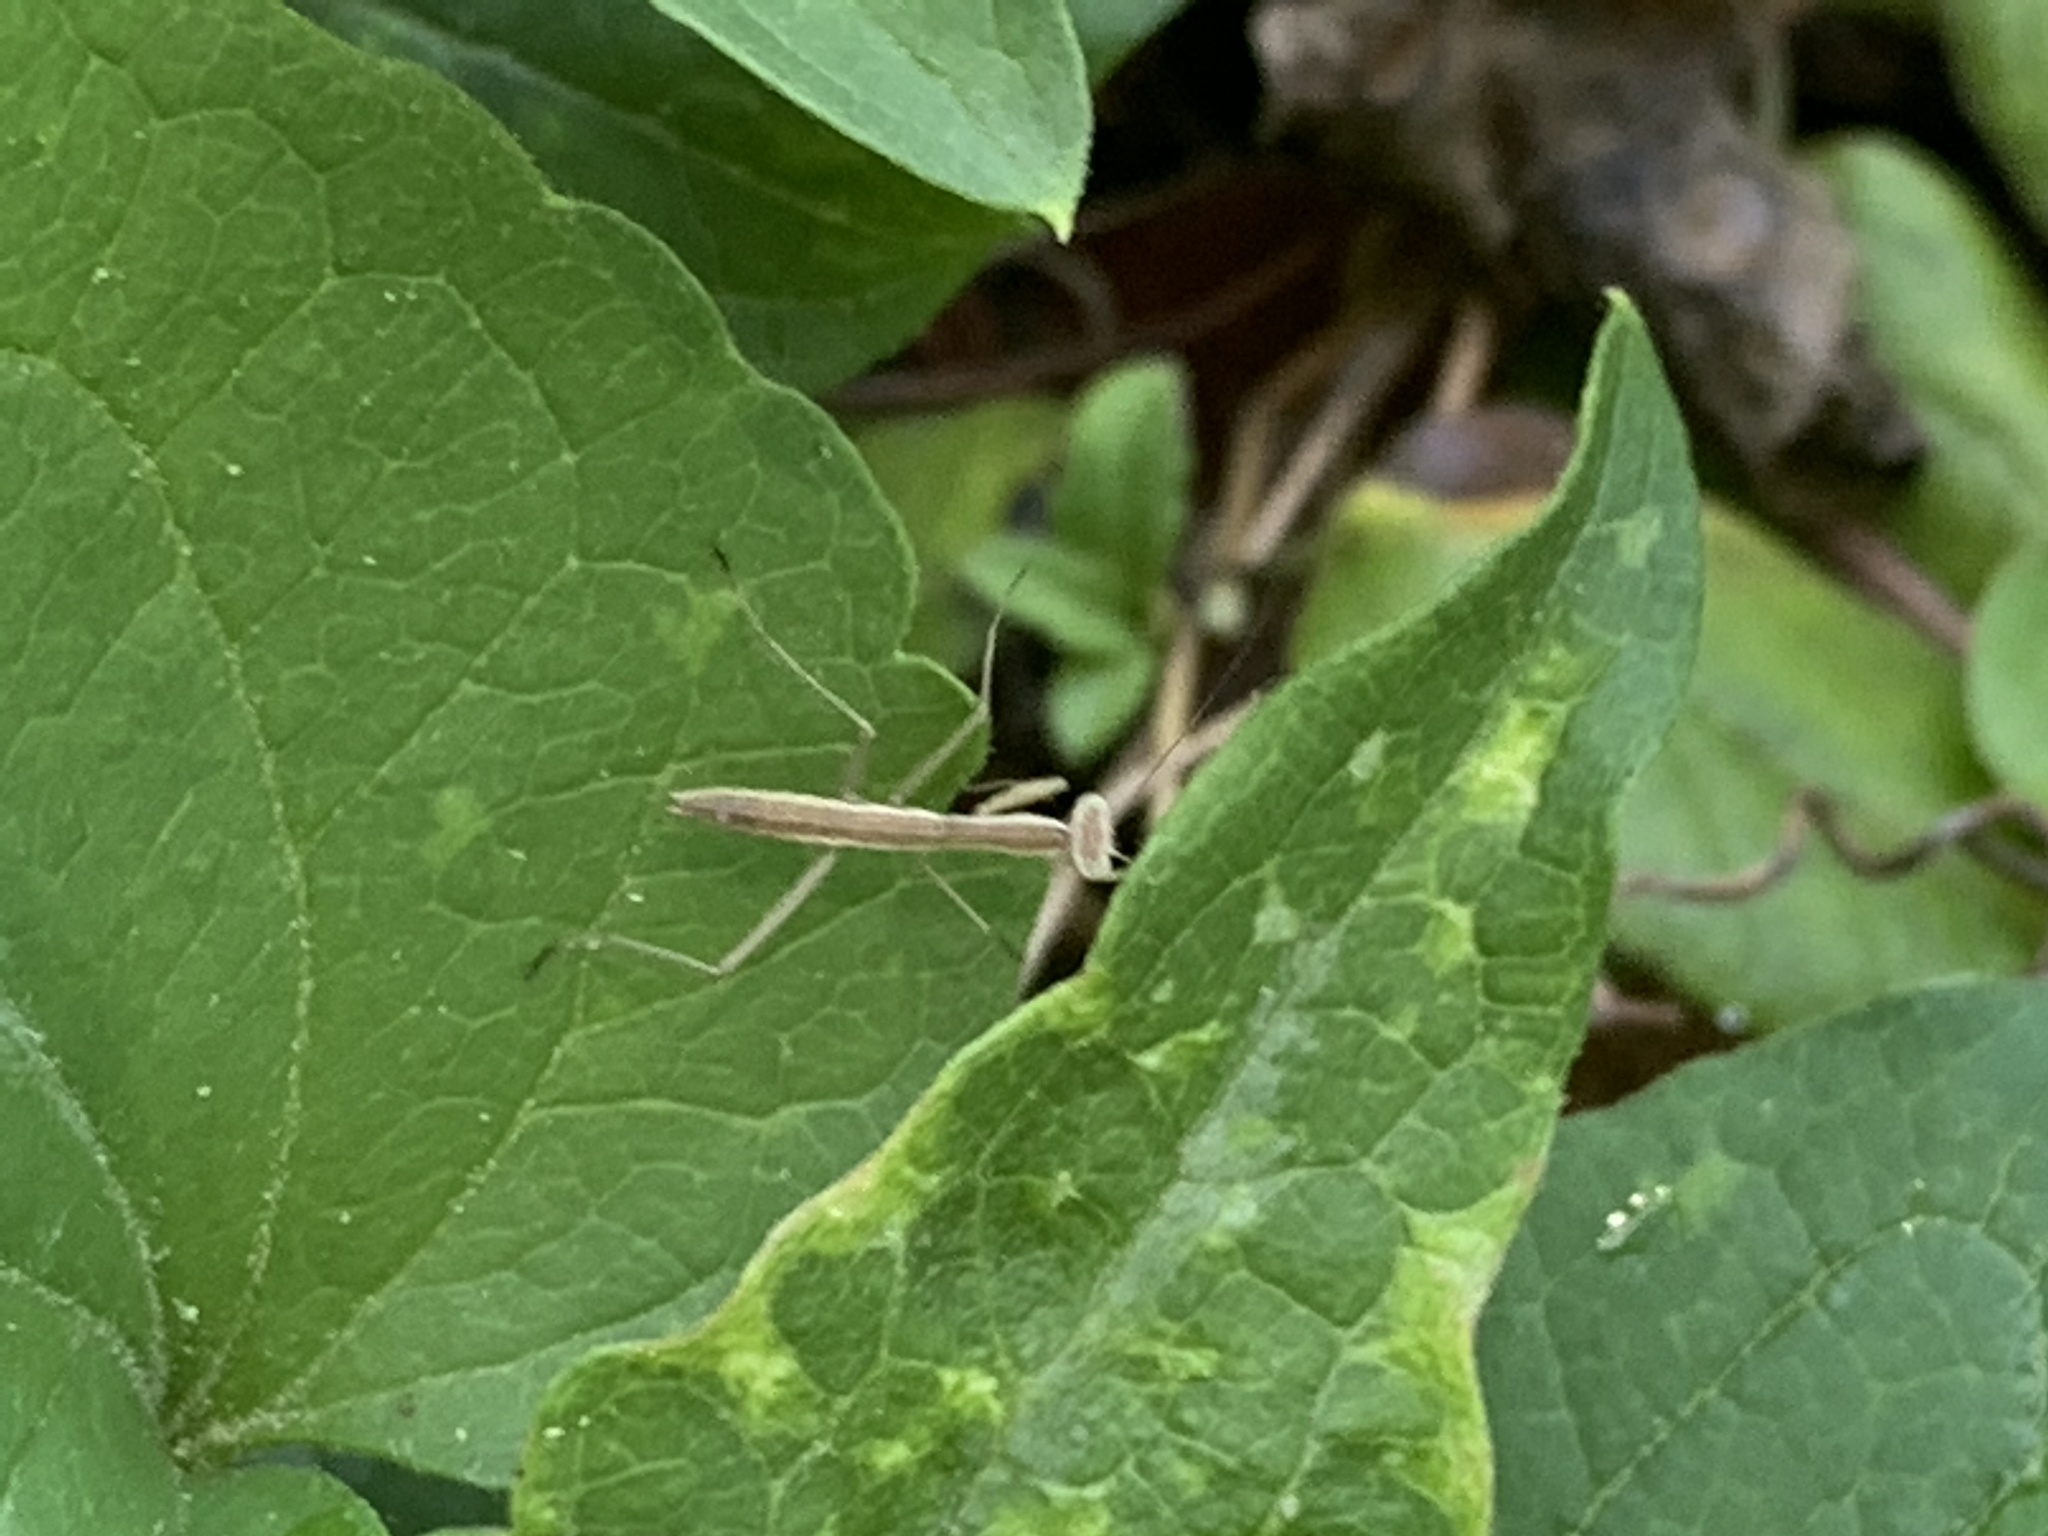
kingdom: Animalia
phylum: Arthropoda
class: Insecta
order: Mantodea
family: Mantidae
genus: Tenodera
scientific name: Tenodera sinensis
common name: Chinese mantis
